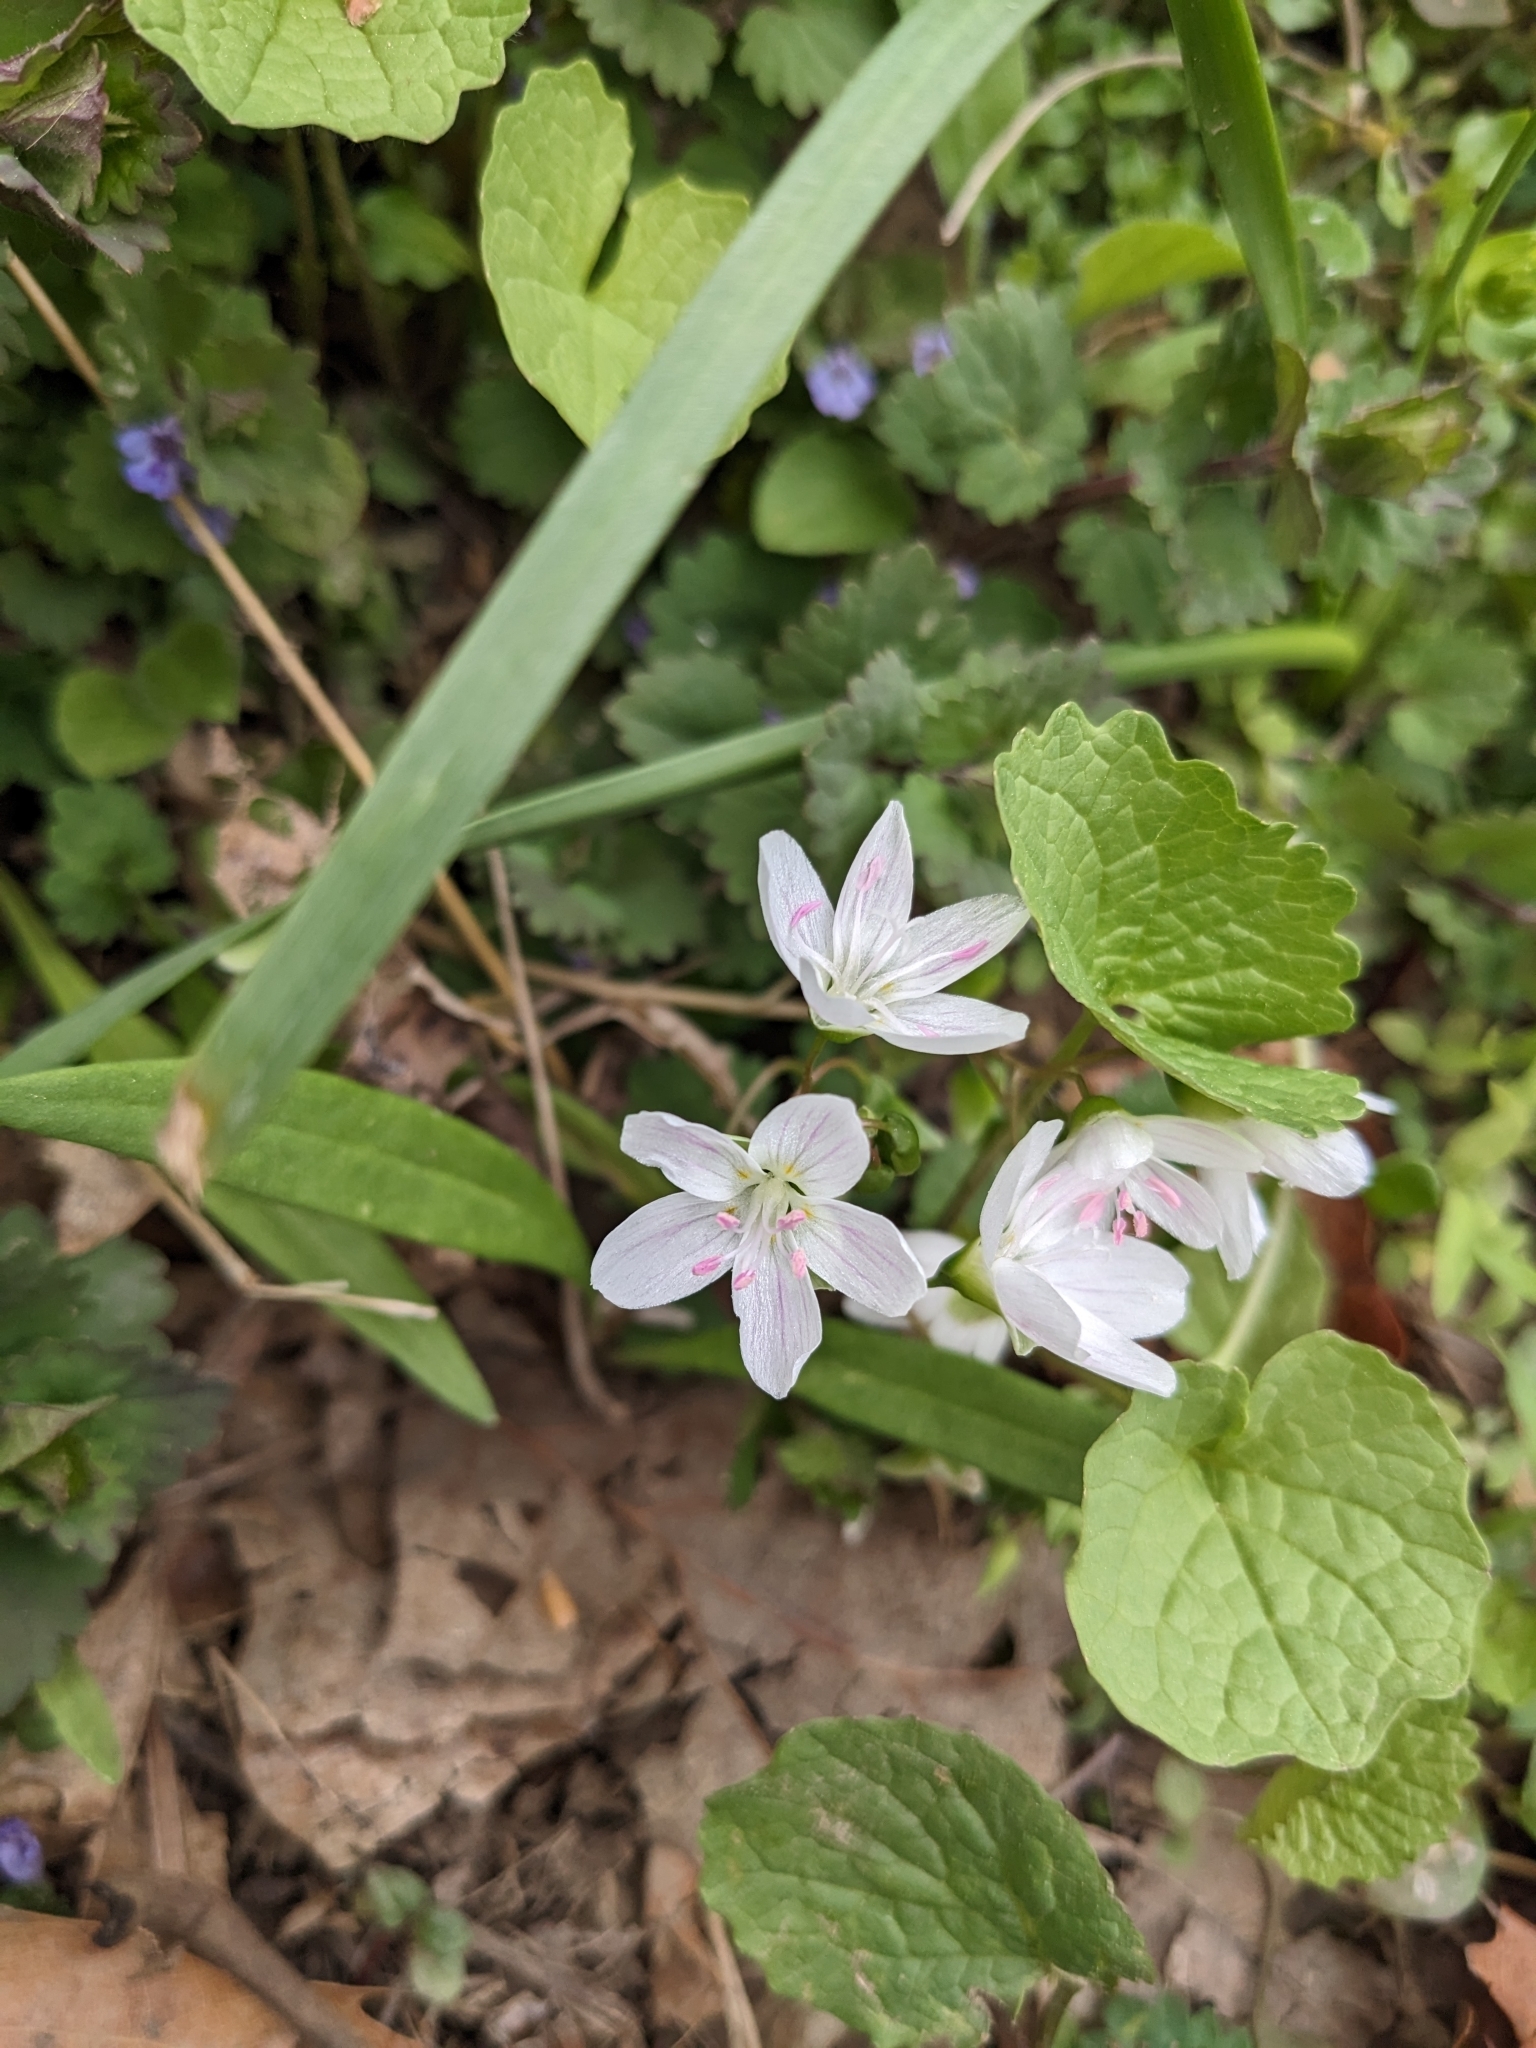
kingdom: Plantae
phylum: Tracheophyta
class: Magnoliopsida
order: Caryophyllales
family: Montiaceae
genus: Claytonia
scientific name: Claytonia virginica
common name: Virginia springbeauty
